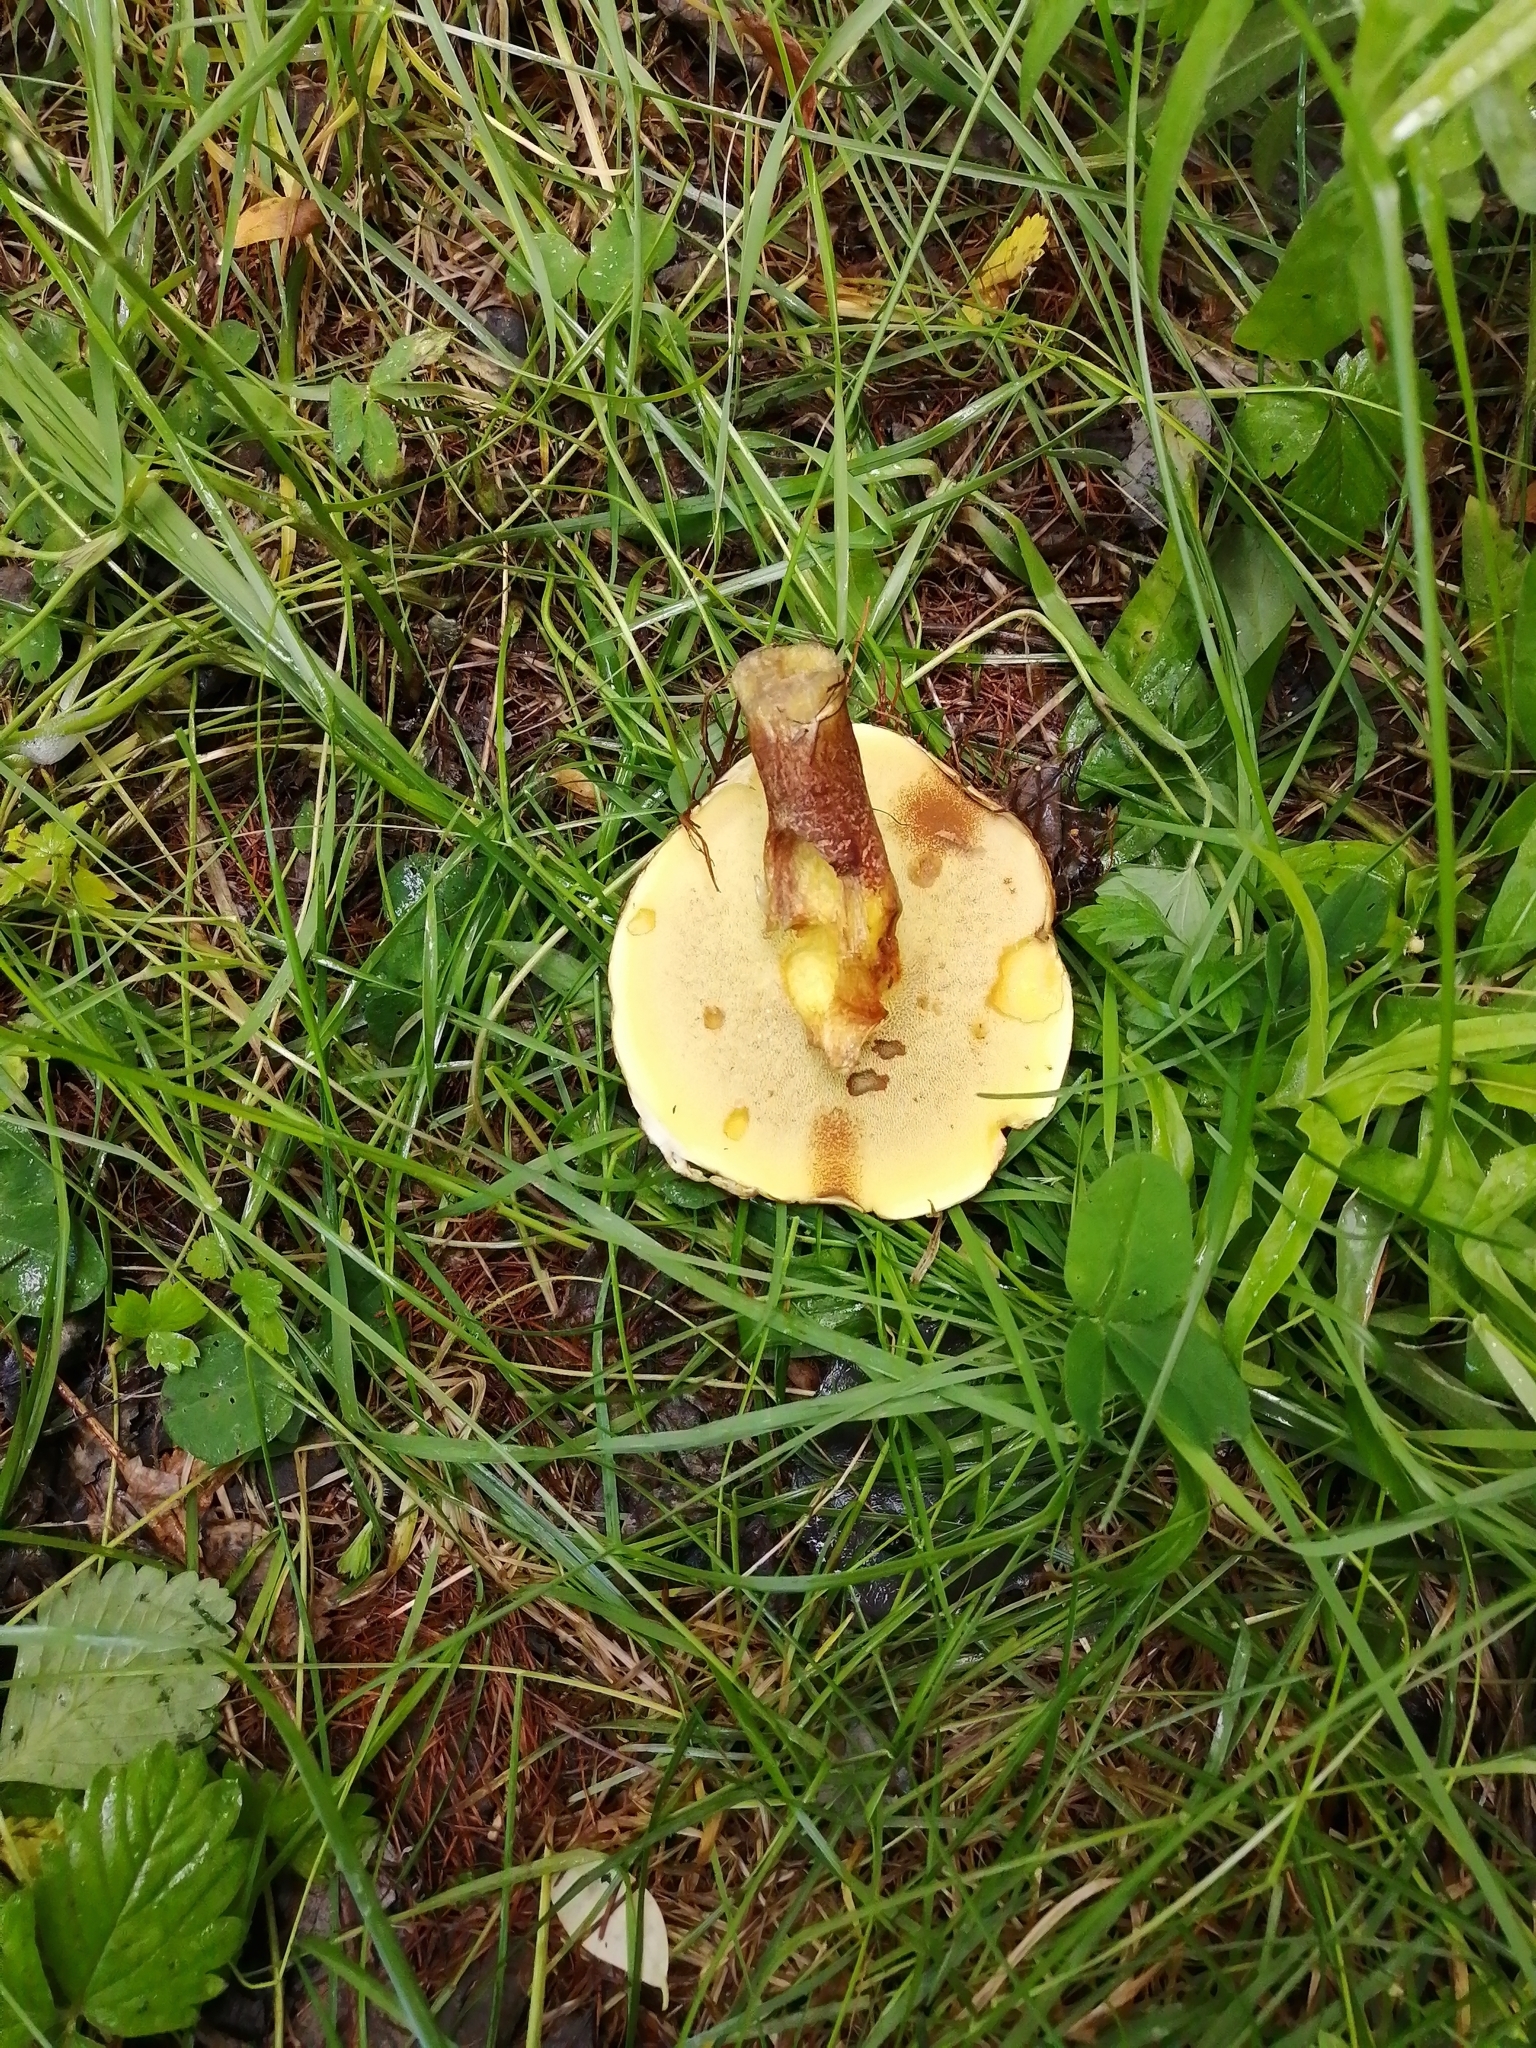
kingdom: Fungi
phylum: Basidiomycota
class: Agaricomycetes
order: Boletales
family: Suillaceae
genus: Suillus
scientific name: Suillus grevillei
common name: Larch bolete
